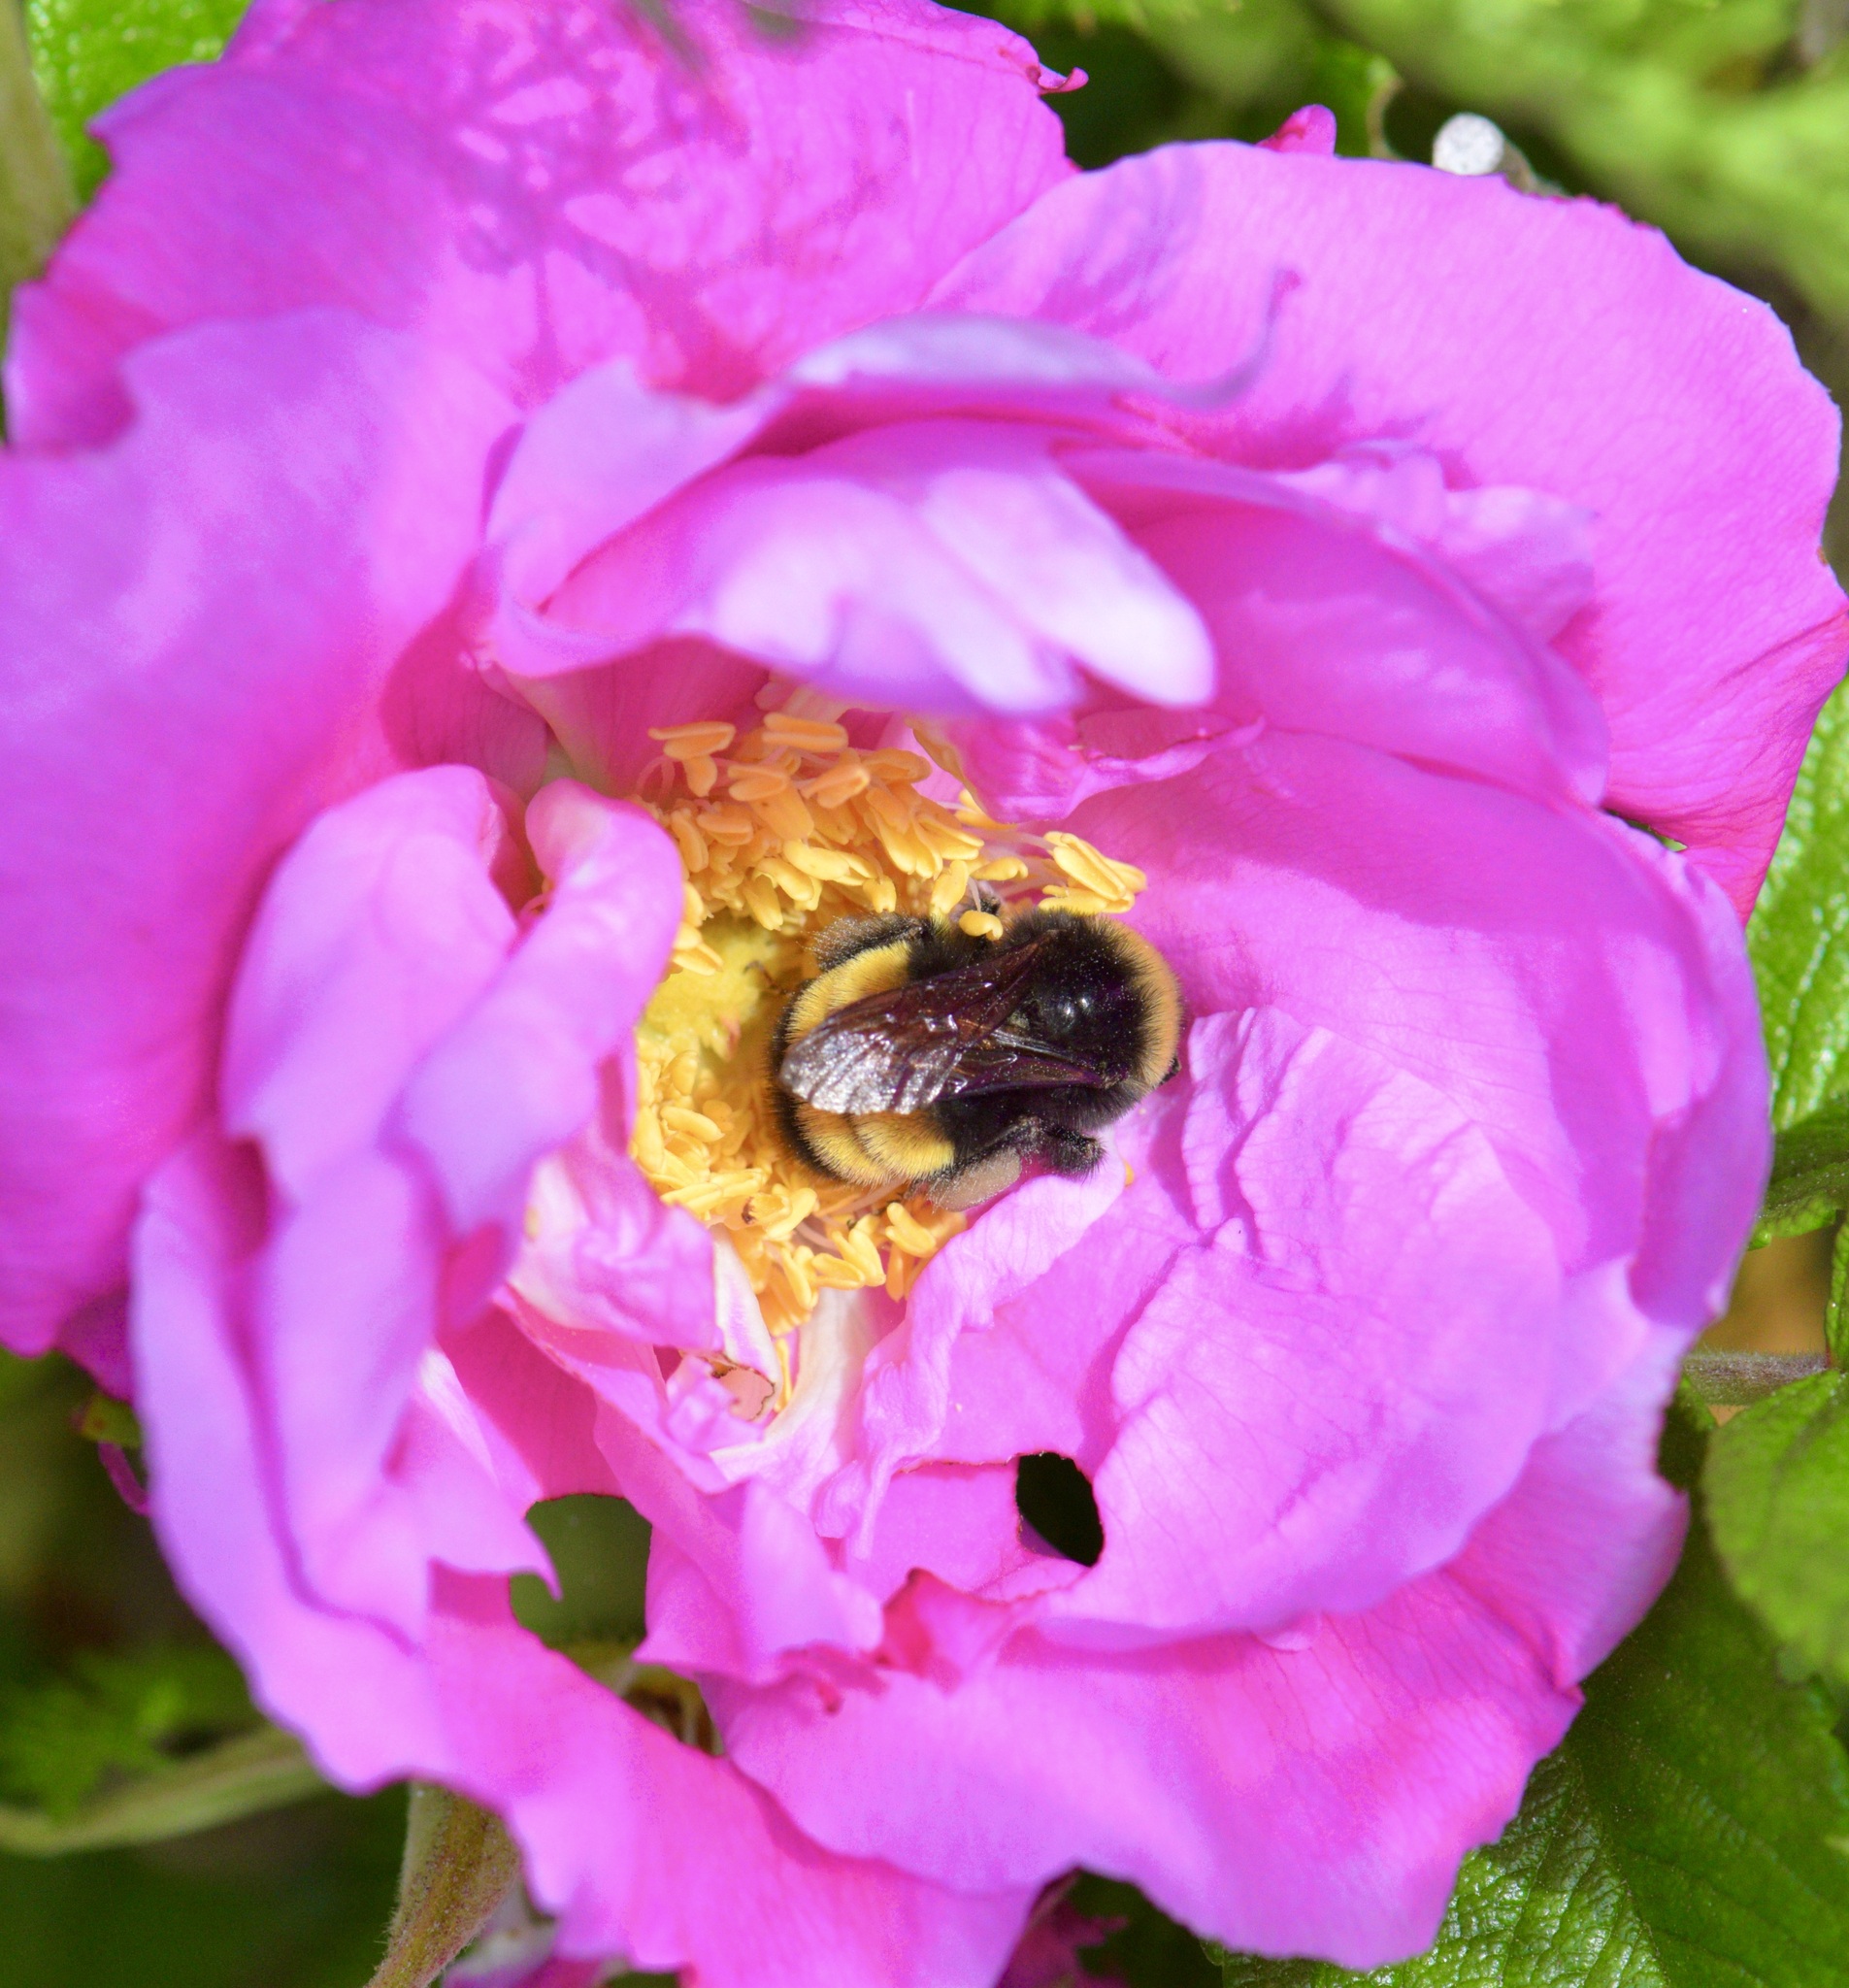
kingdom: Animalia
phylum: Arthropoda
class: Insecta
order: Hymenoptera
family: Apidae
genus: Bombus
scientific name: Bombus terricola
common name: Yellow-banded bumble bee
